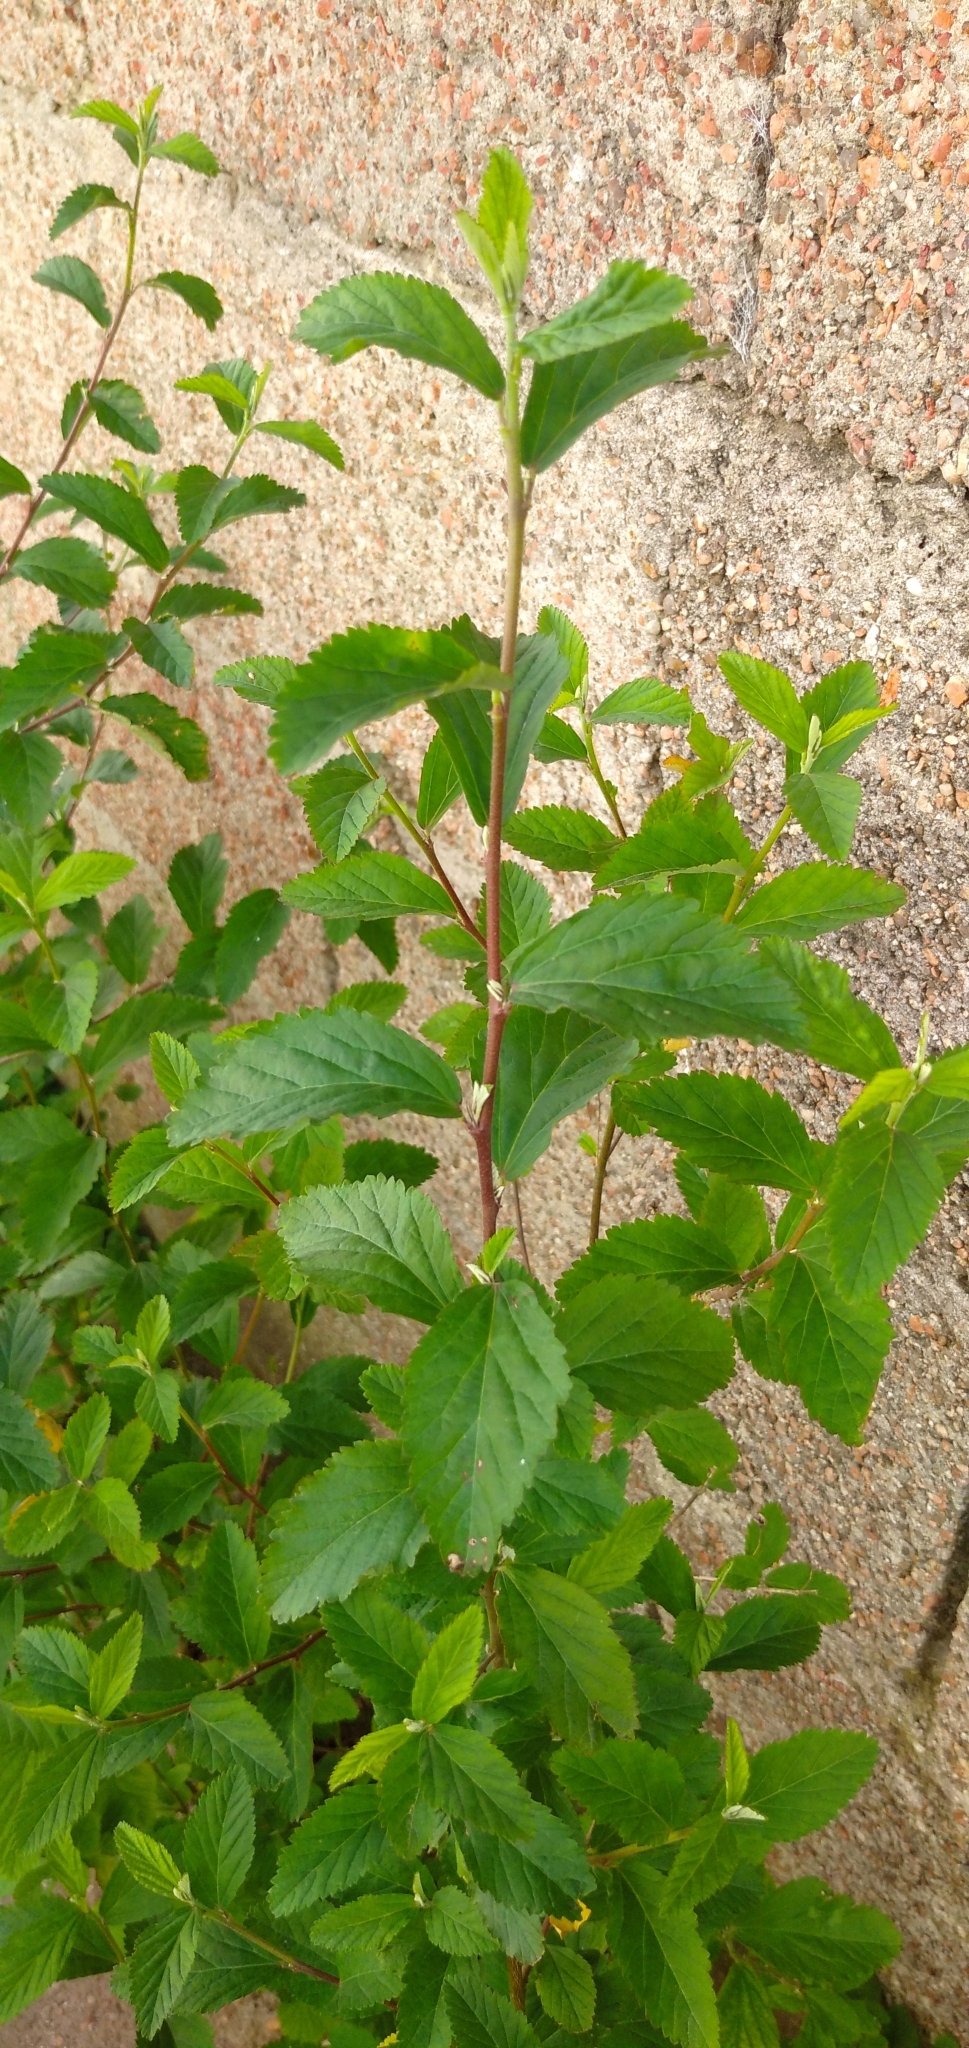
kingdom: Plantae
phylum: Tracheophyta
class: Magnoliopsida
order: Malvales
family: Malvaceae
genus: Sida
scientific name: Sida spinosa
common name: Prickly fanpetals
